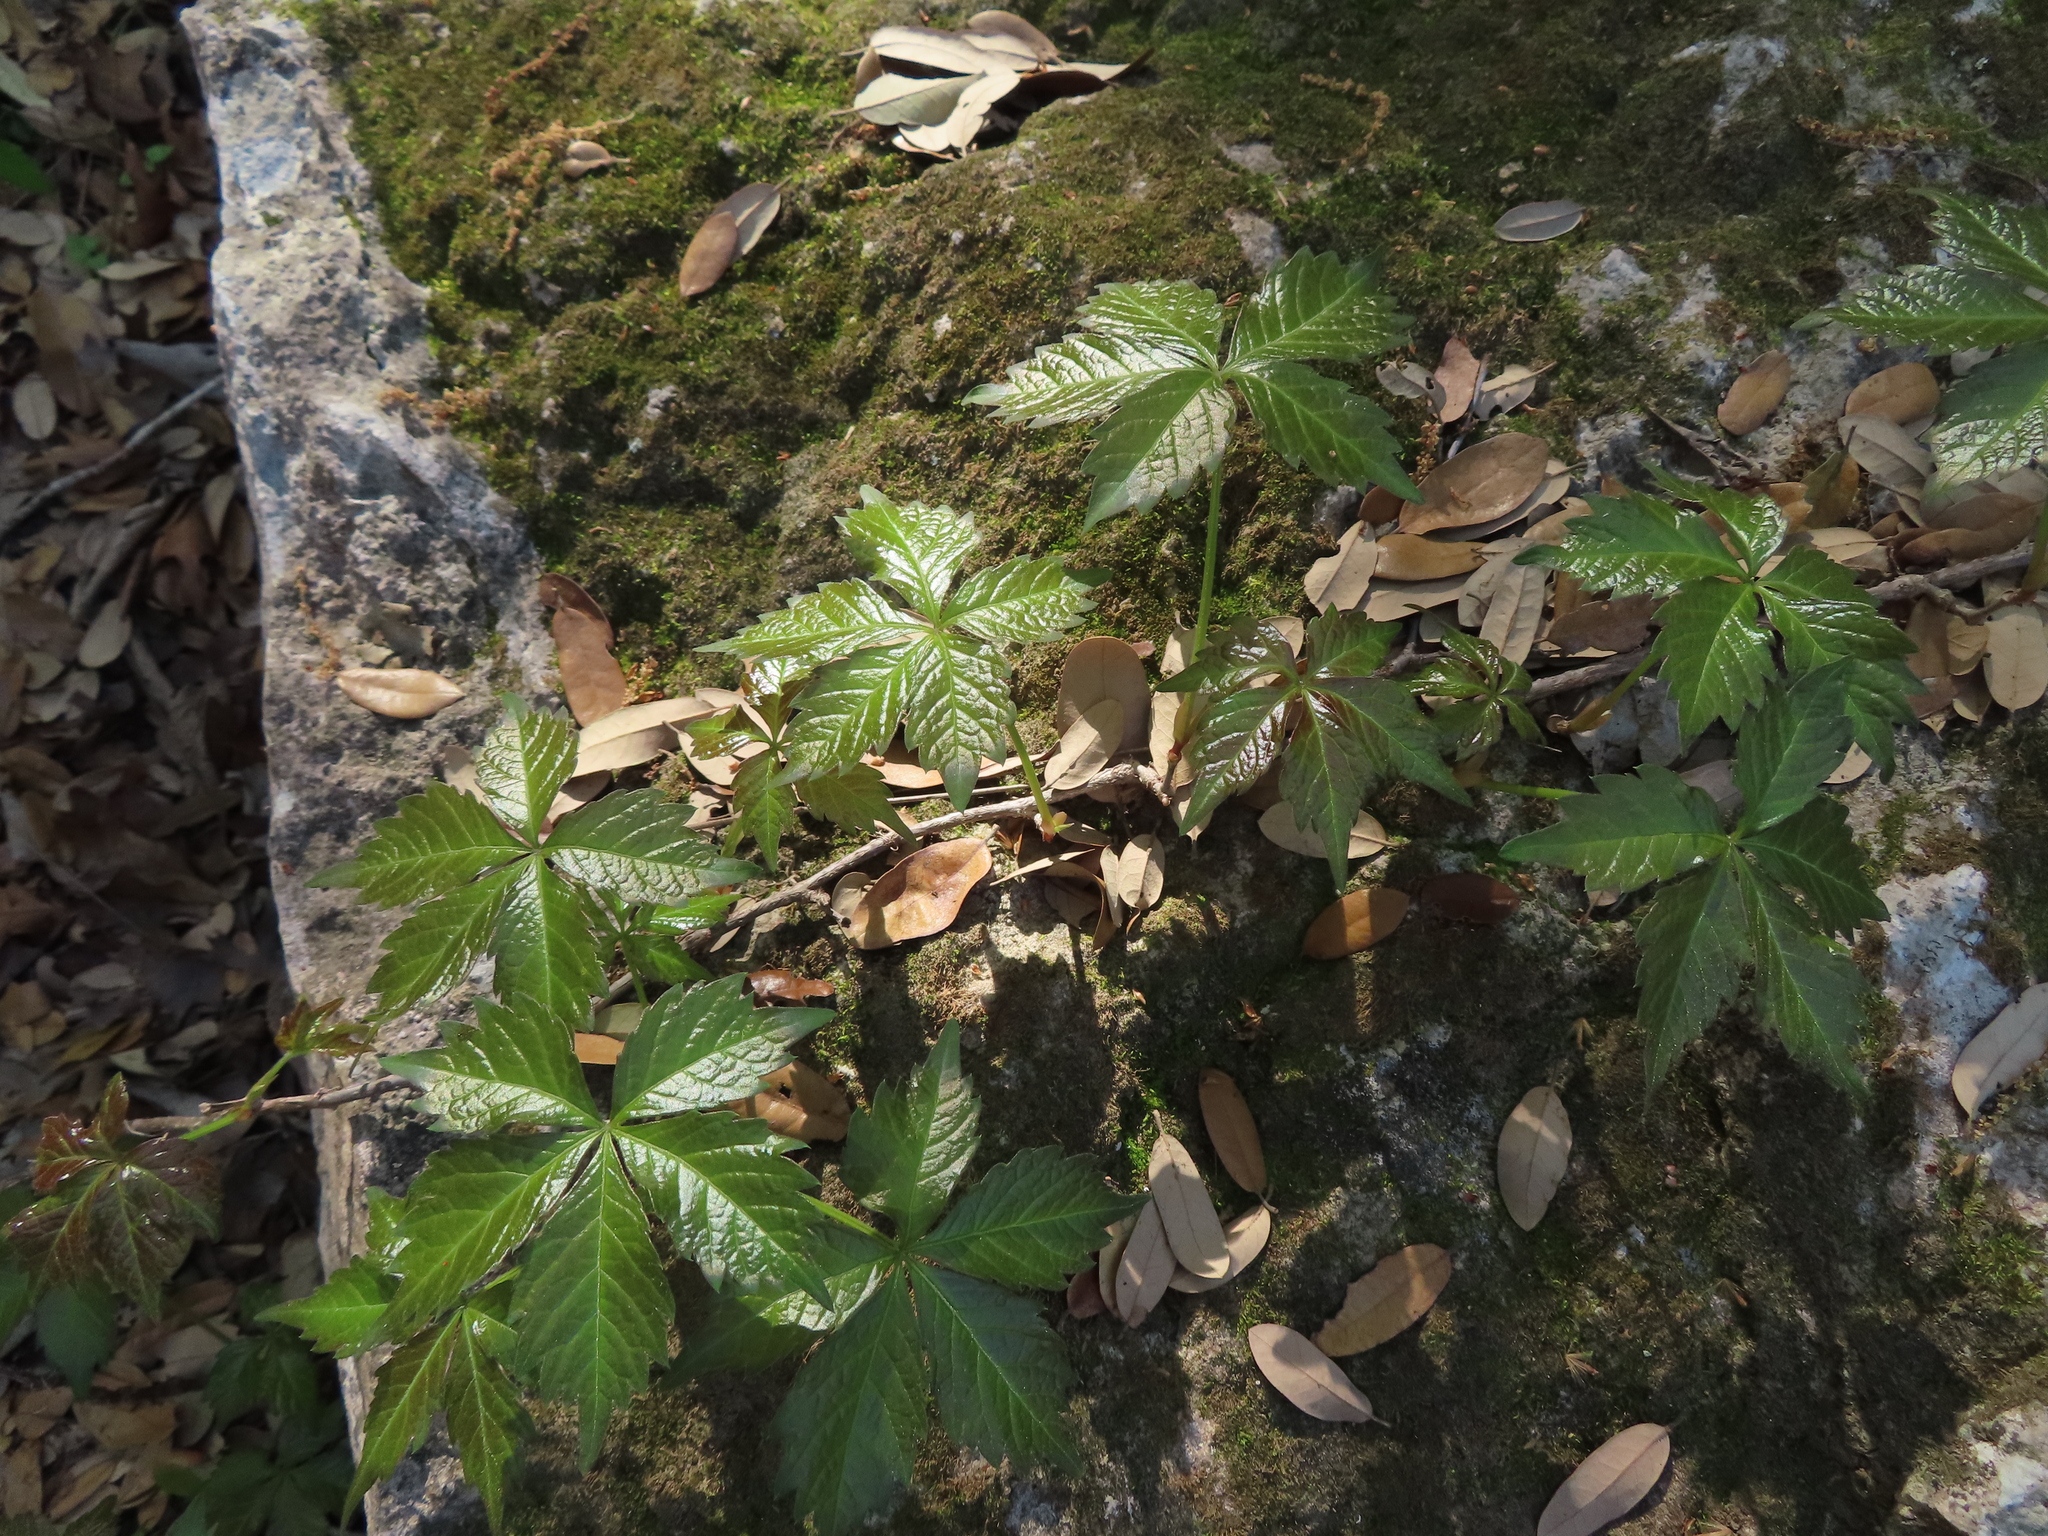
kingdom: Plantae
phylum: Tracheophyta
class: Magnoliopsida
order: Vitales
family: Vitaceae
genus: Parthenocissus
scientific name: Parthenocissus quinquefolia
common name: Virginia-creeper
